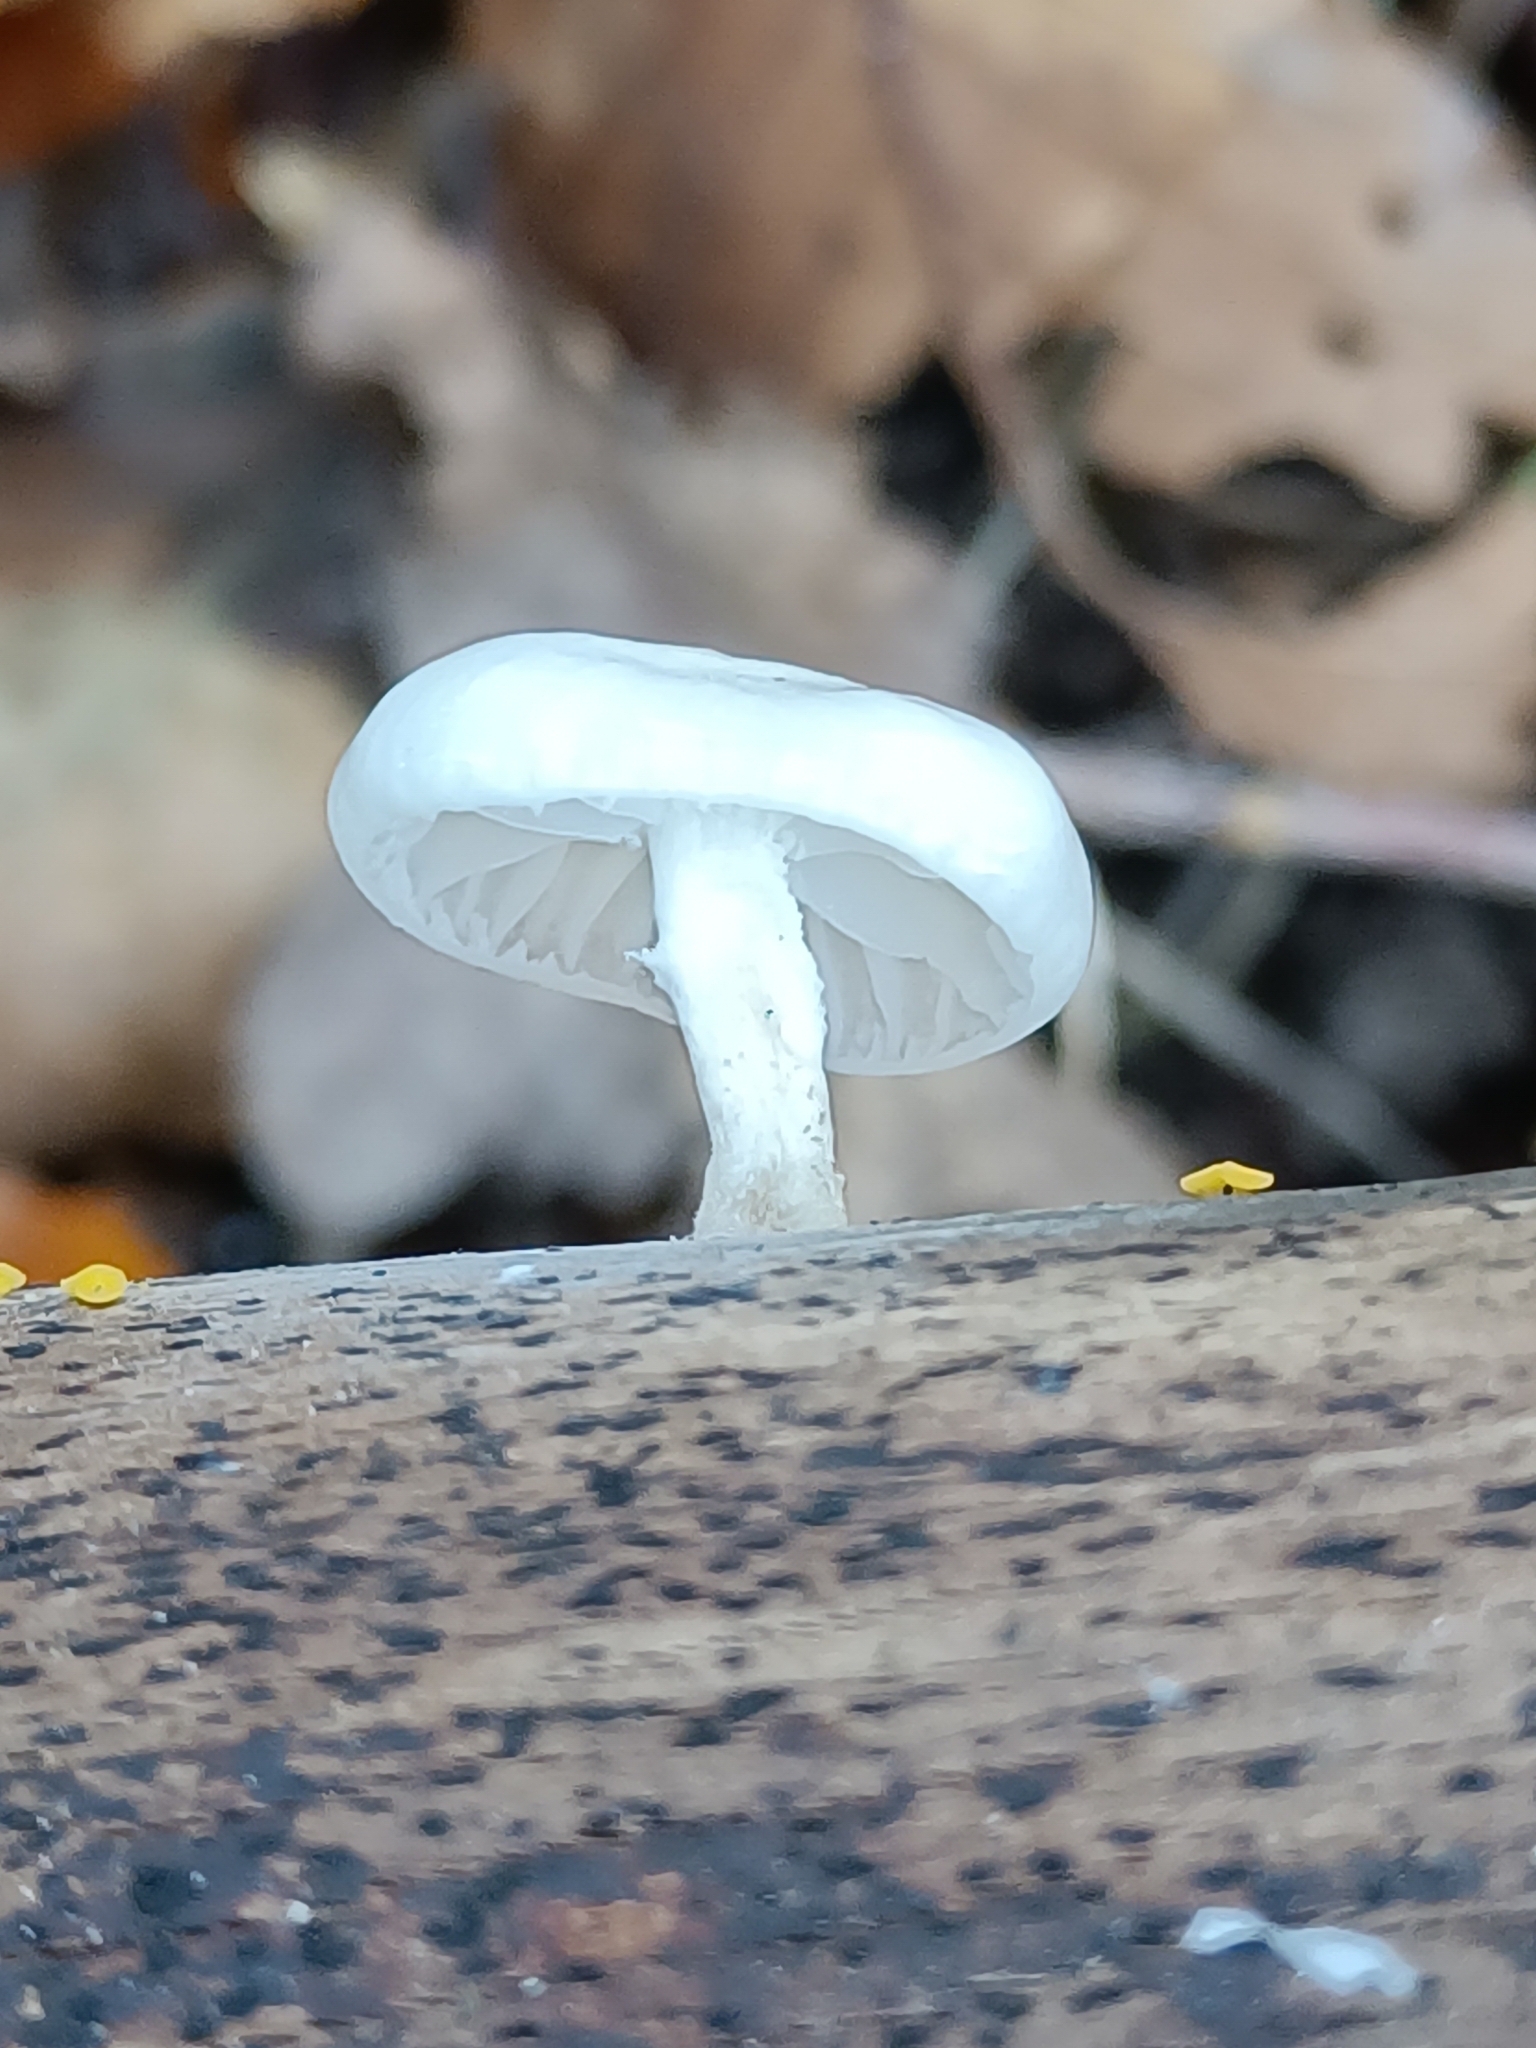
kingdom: Fungi
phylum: Basidiomycota
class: Agaricomycetes
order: Agaricales
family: Physalacriaceae
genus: Mucidula
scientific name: Mucidula mucida
